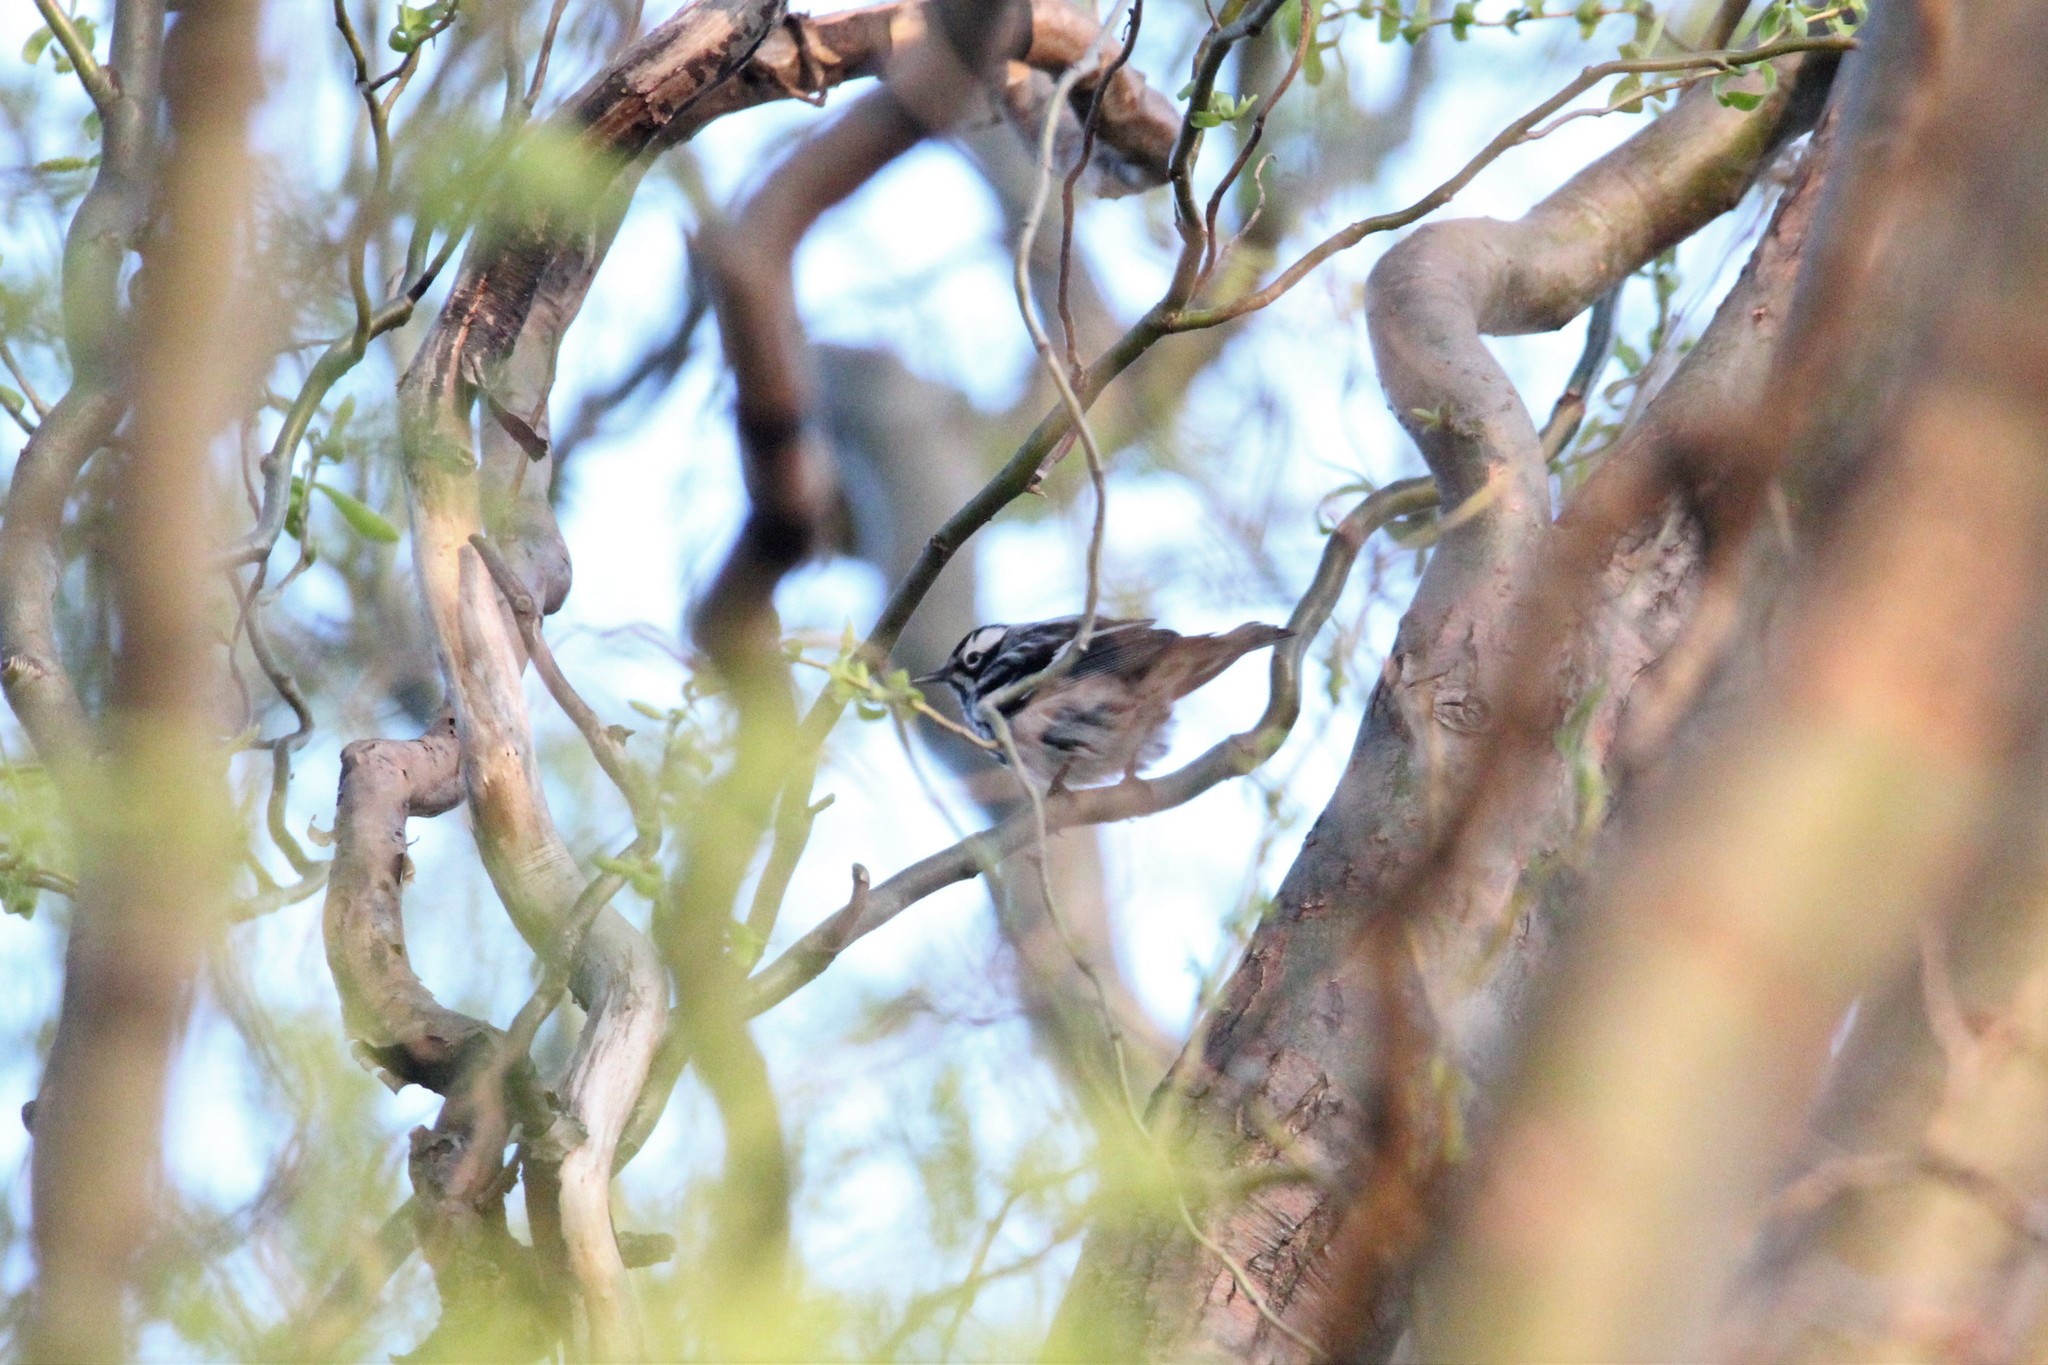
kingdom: Animalia
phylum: Chordata
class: Aves
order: Passeriformes
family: Parulidae
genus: Mniotilta
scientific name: Mniotilta varia
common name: Black-and-white warbler
